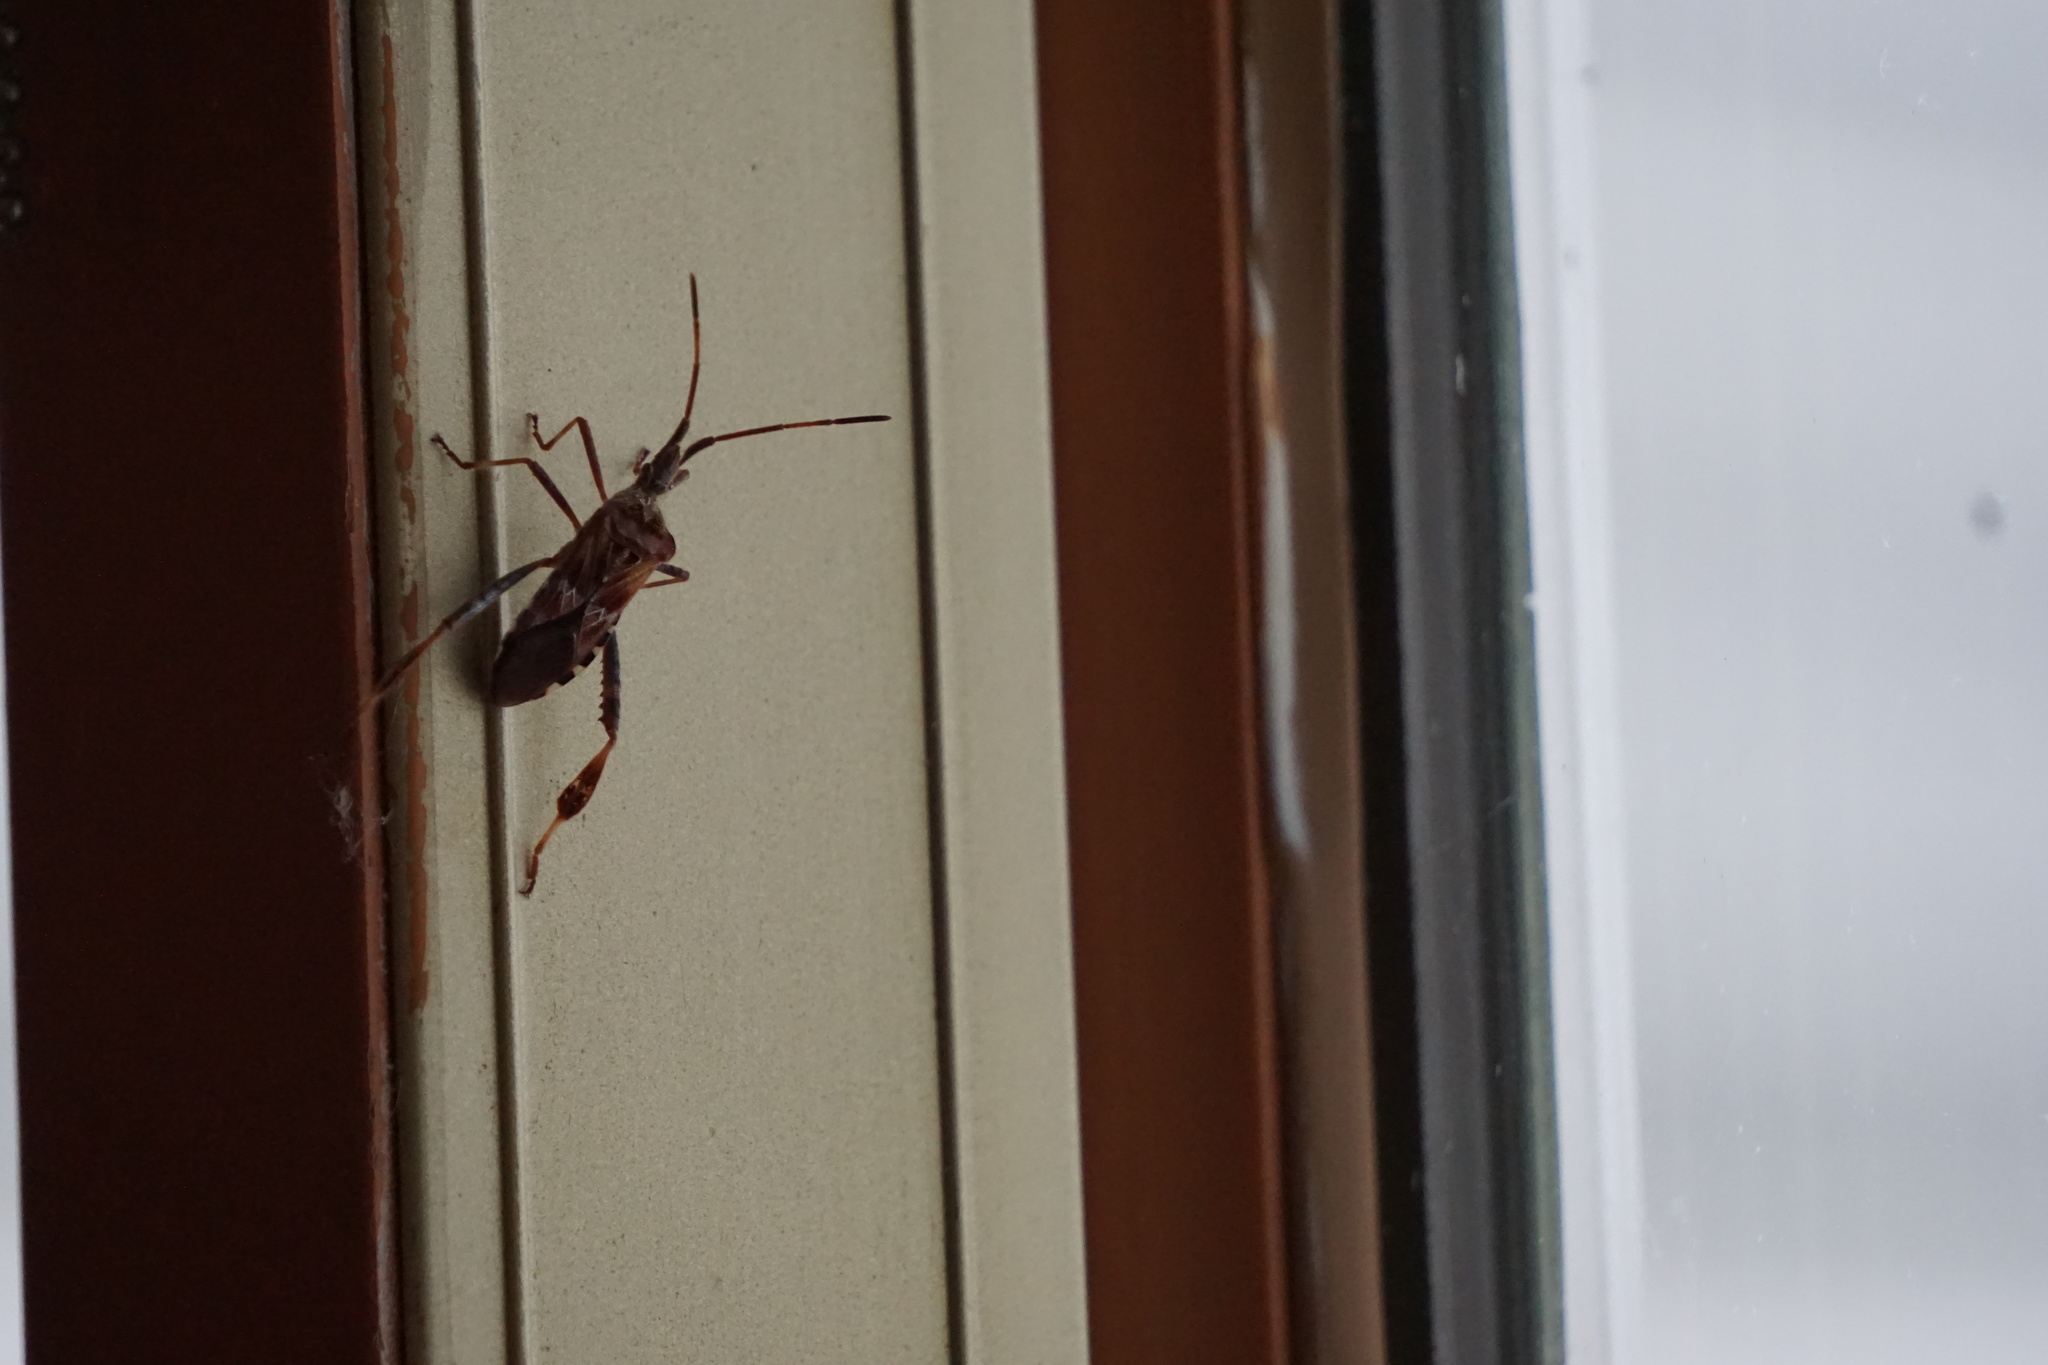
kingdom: Animalia
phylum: Arthropoda
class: Insecta
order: Hemiptera
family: Coreidae
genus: Leptoglossus
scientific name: Leptoglossus occidentalis
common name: Western conifer-seed bug
